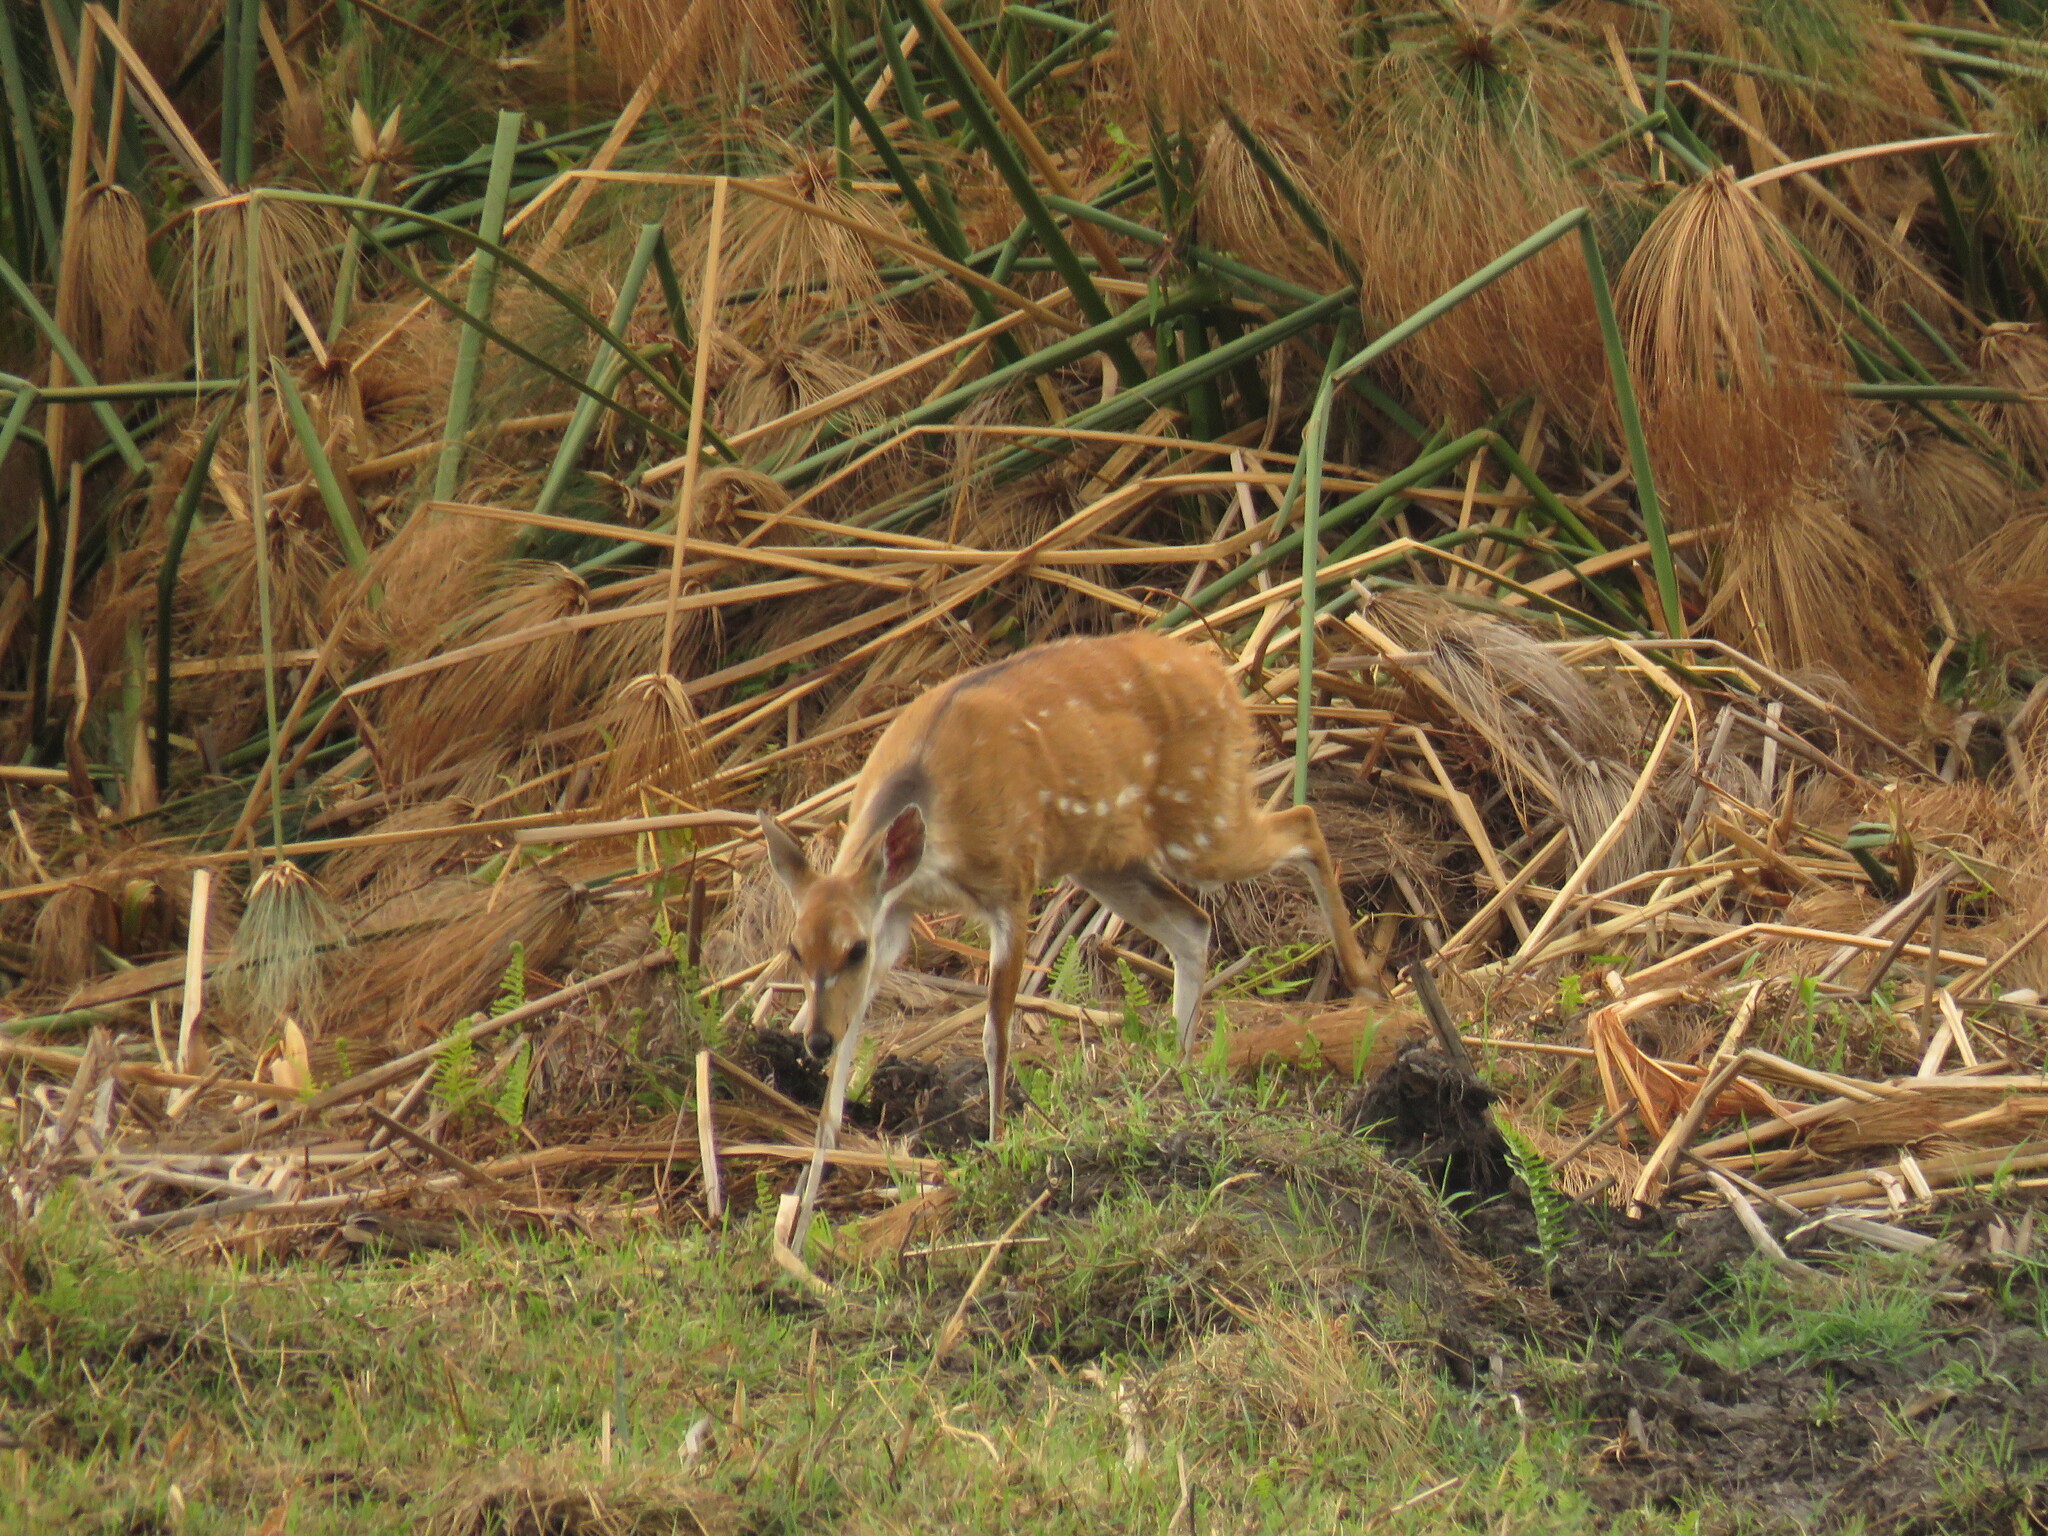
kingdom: Animalia
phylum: Chordata
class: Mammalia
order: Artiodactyla
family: Bovidae
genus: Tragelaphus
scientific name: Tragelaphus scriptus
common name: Bushbuck
